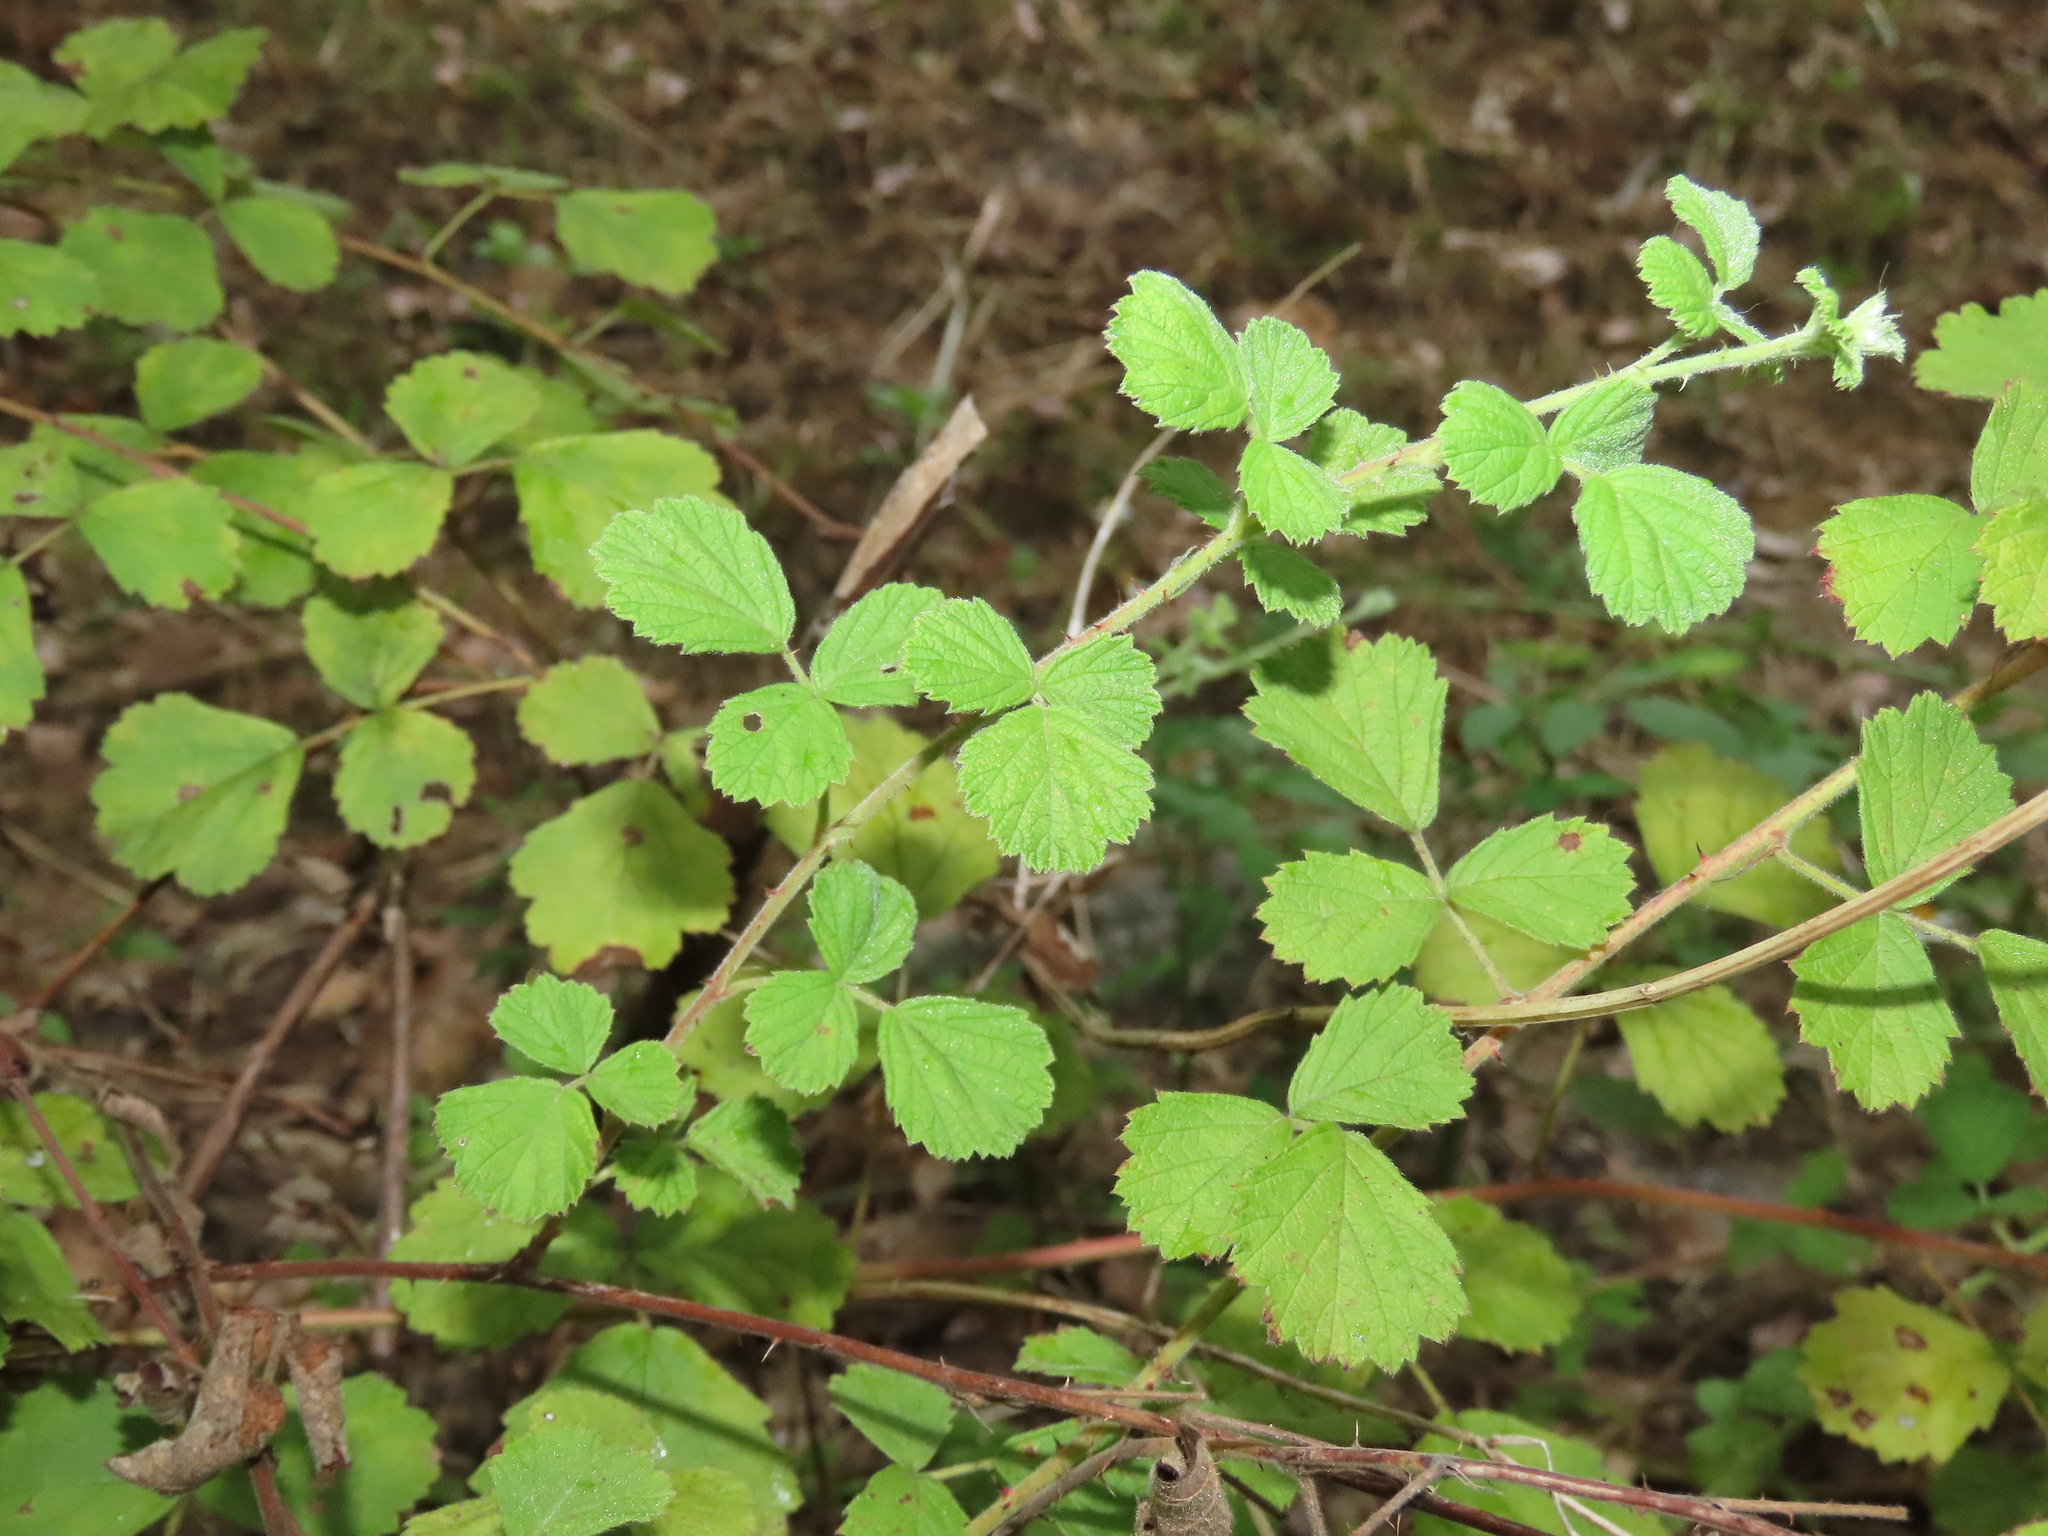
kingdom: Plantae
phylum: Tracheophyta
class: Magnoliopsida
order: Rosales
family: Rosaceae
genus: Rubus
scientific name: Rubus parvifolius
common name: Threeleaf blackberry
